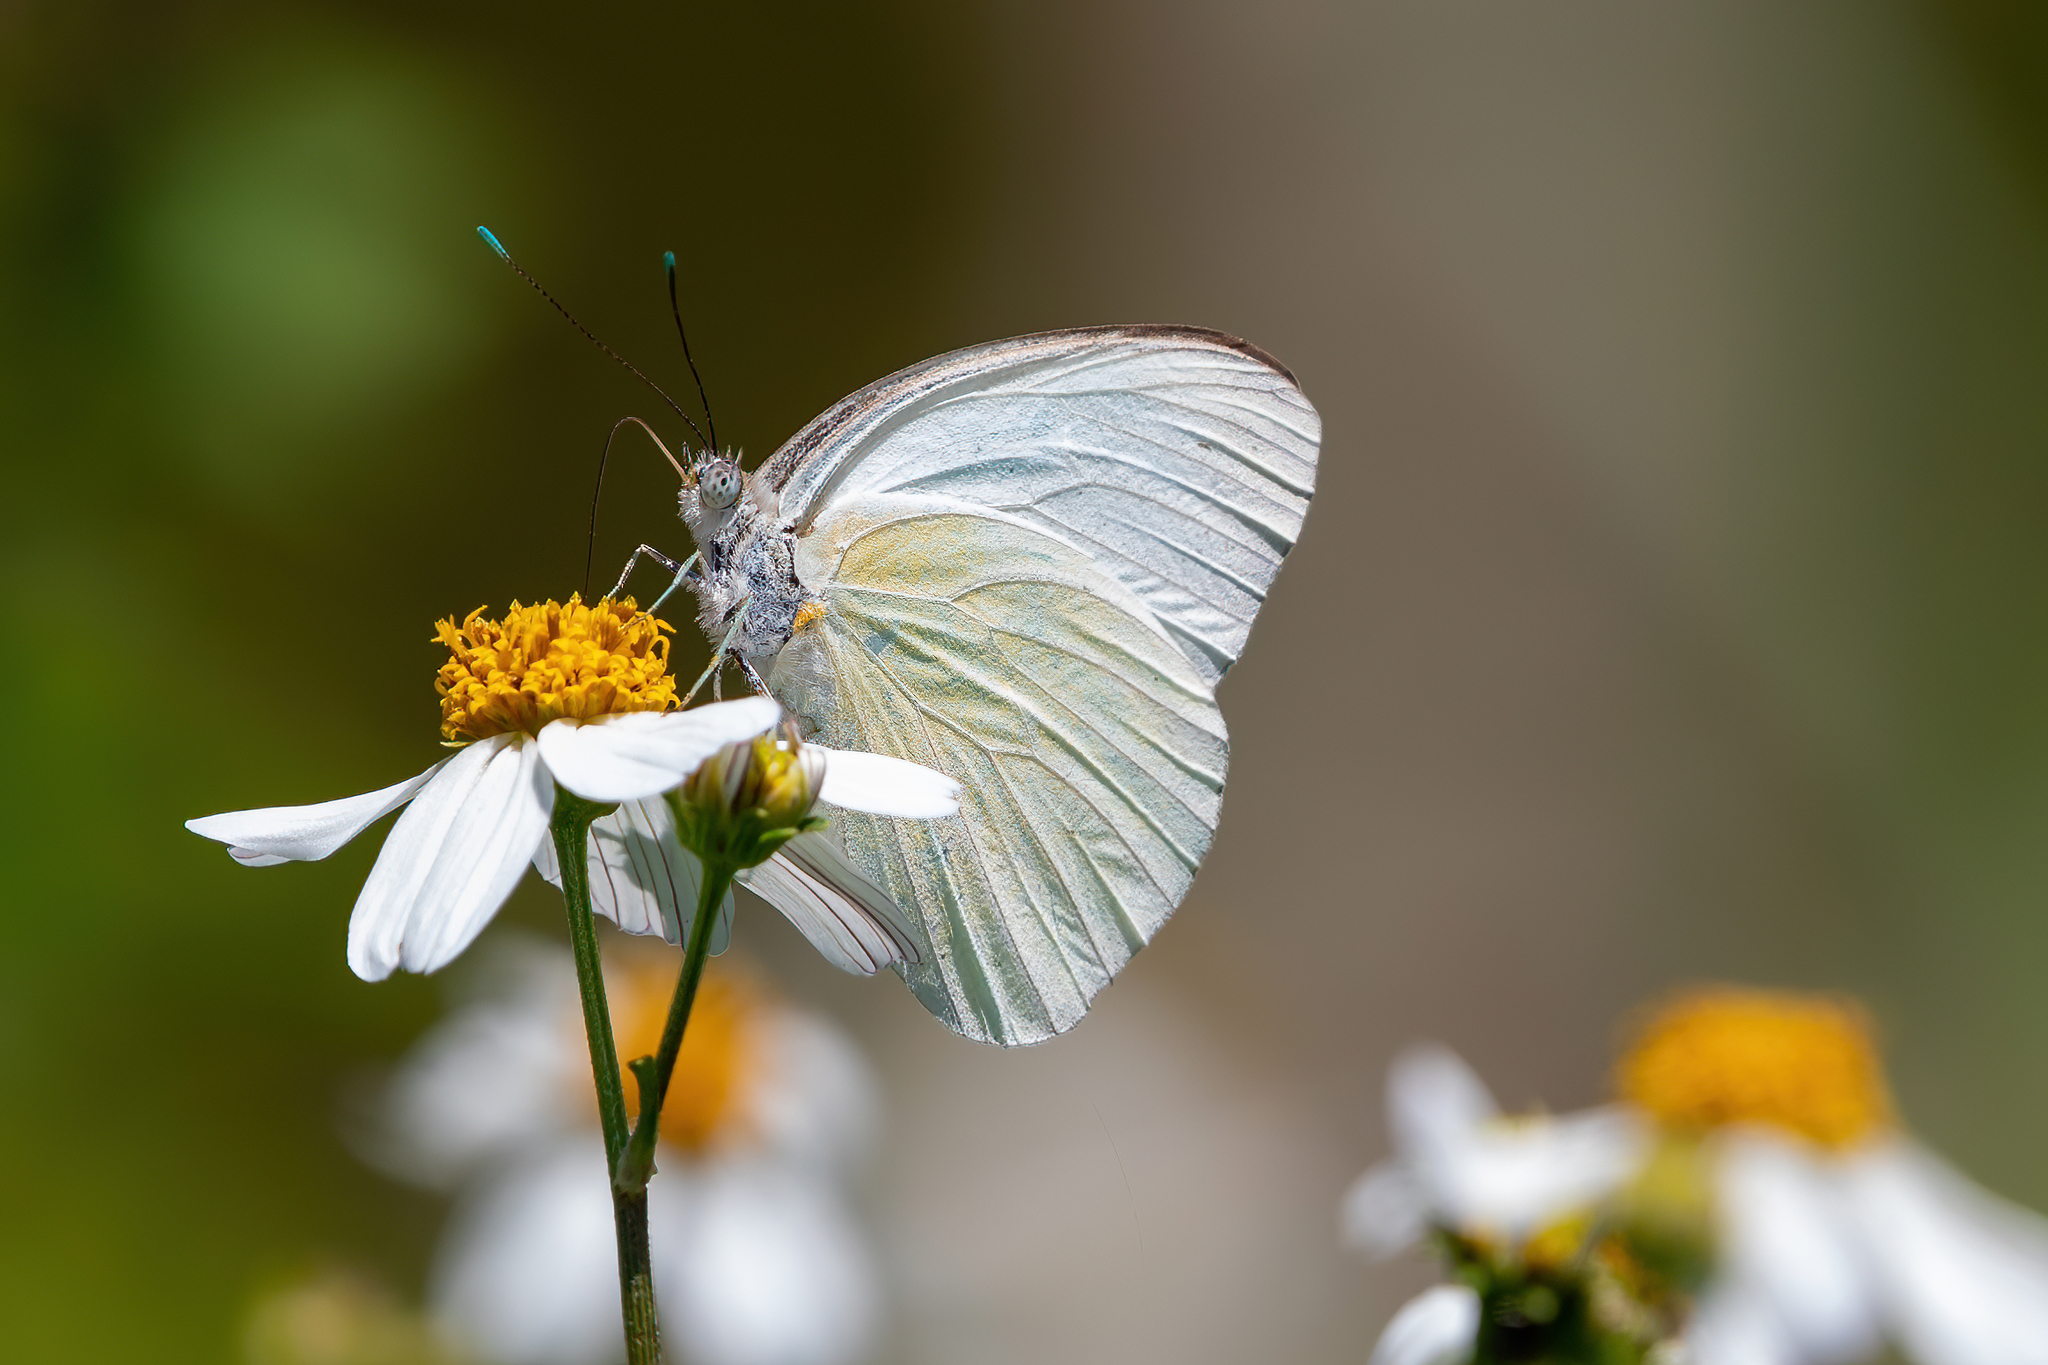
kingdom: Animalia
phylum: Arthropoda
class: Insecta
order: Lepidoptera
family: Pieridae
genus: Ascia
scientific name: Ascia monuste
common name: Great southern white
